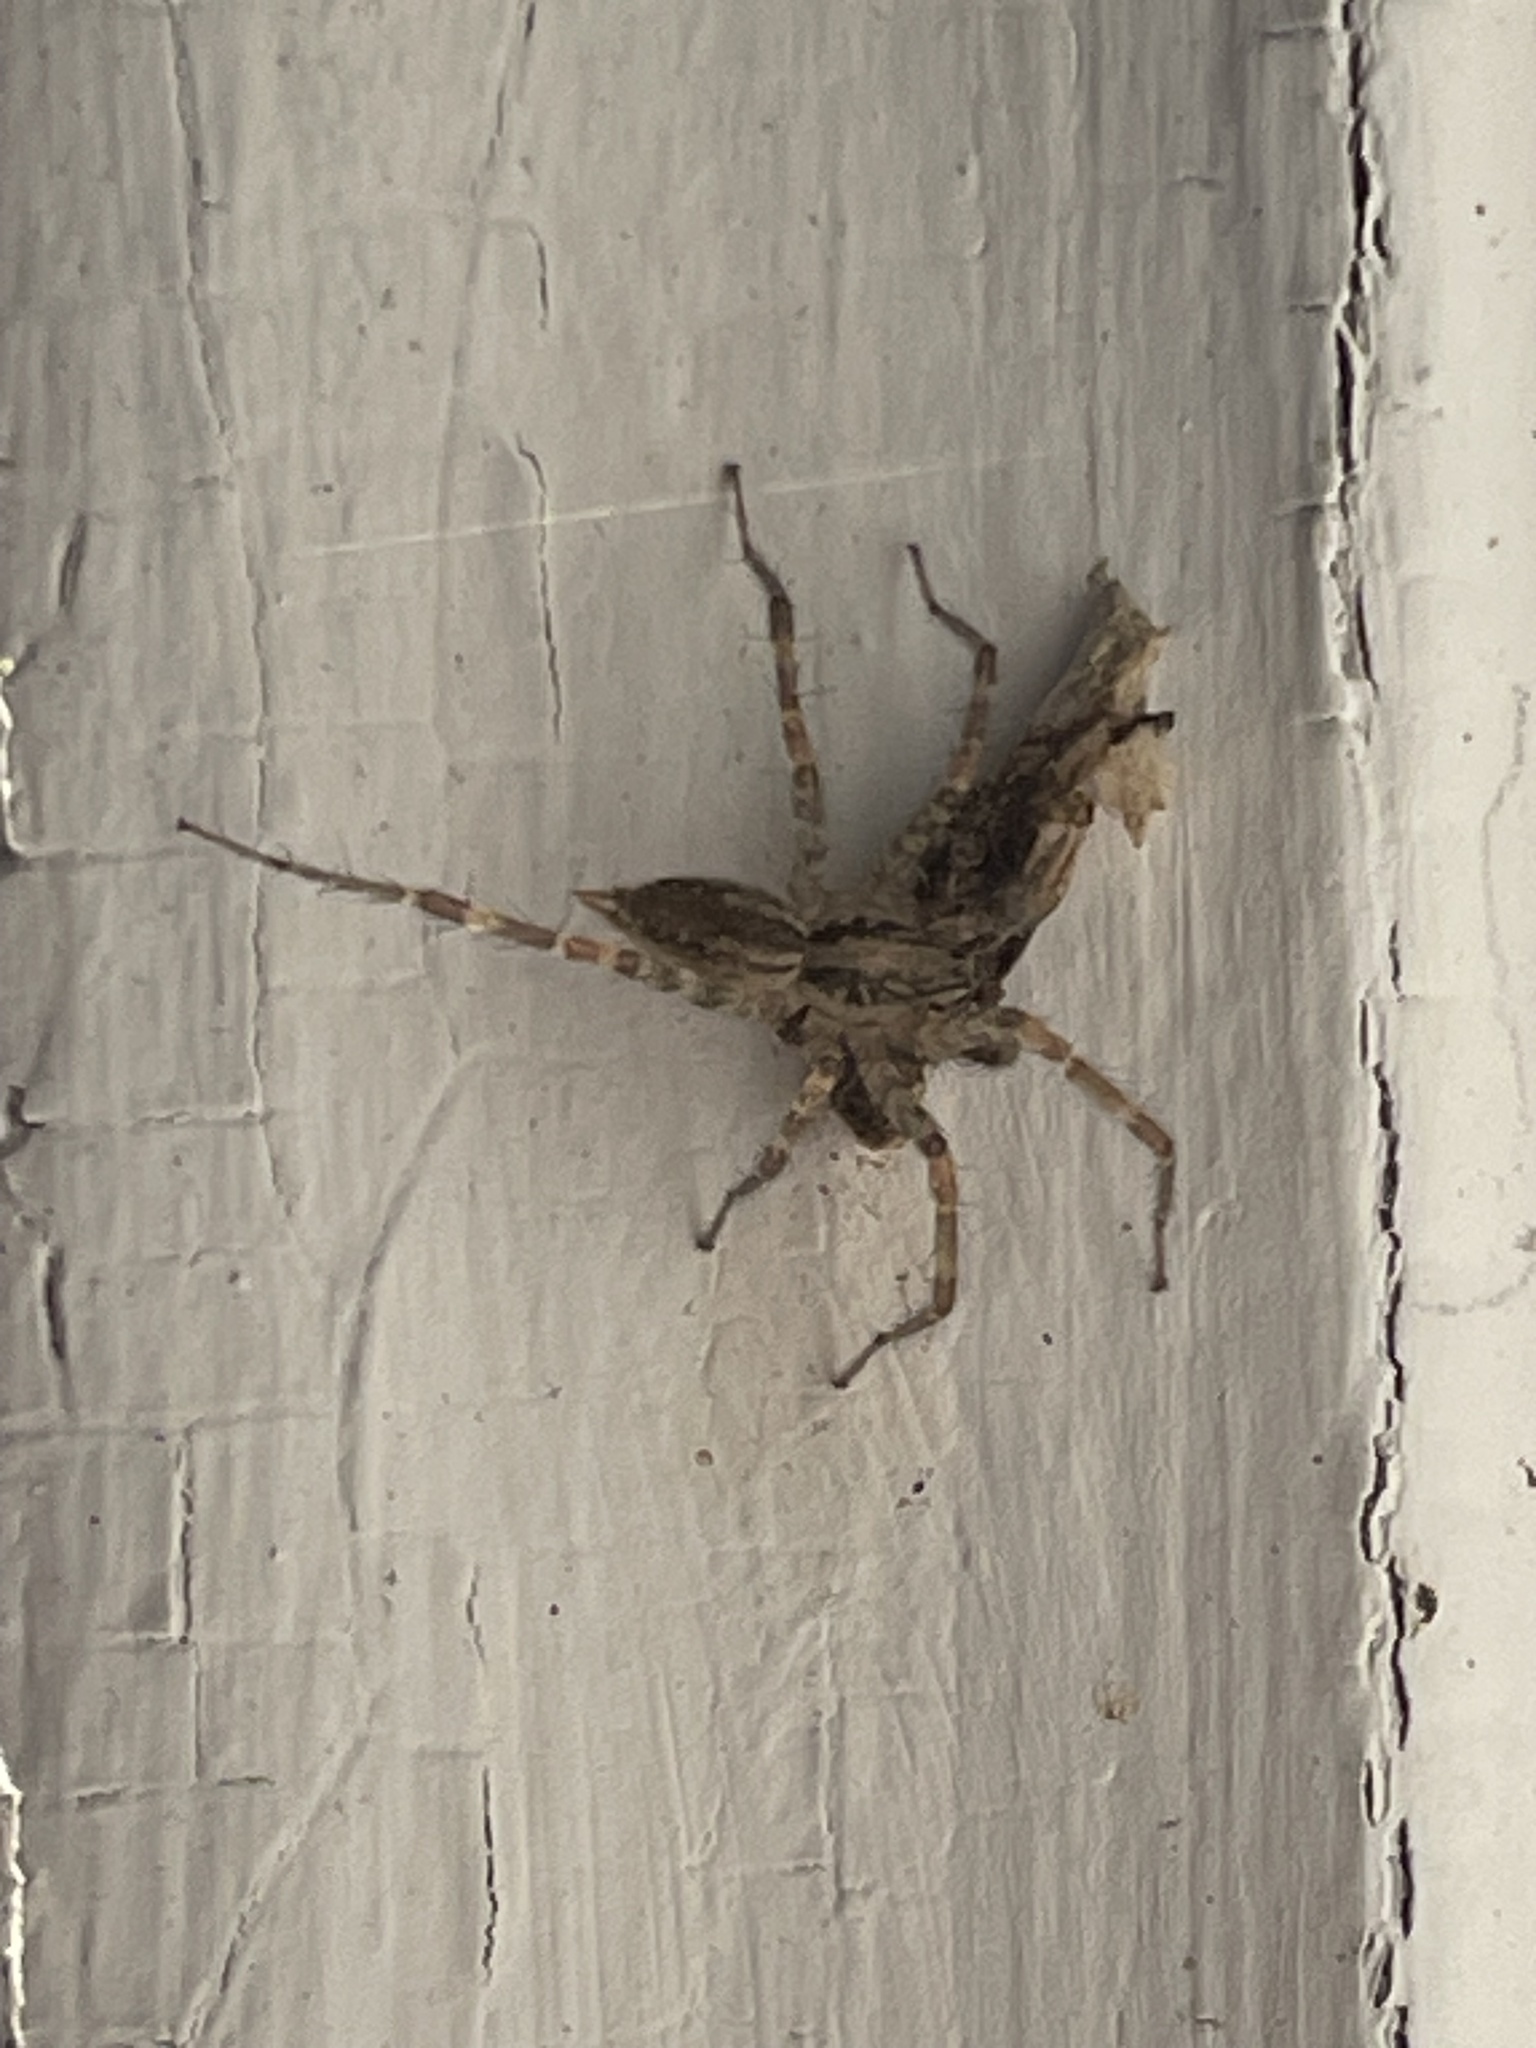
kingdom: Animalia
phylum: Arthropoda
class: Arachnida
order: Araneae
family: Agelenidae
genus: Barronopsis
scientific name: Barronopsis jeffersi
